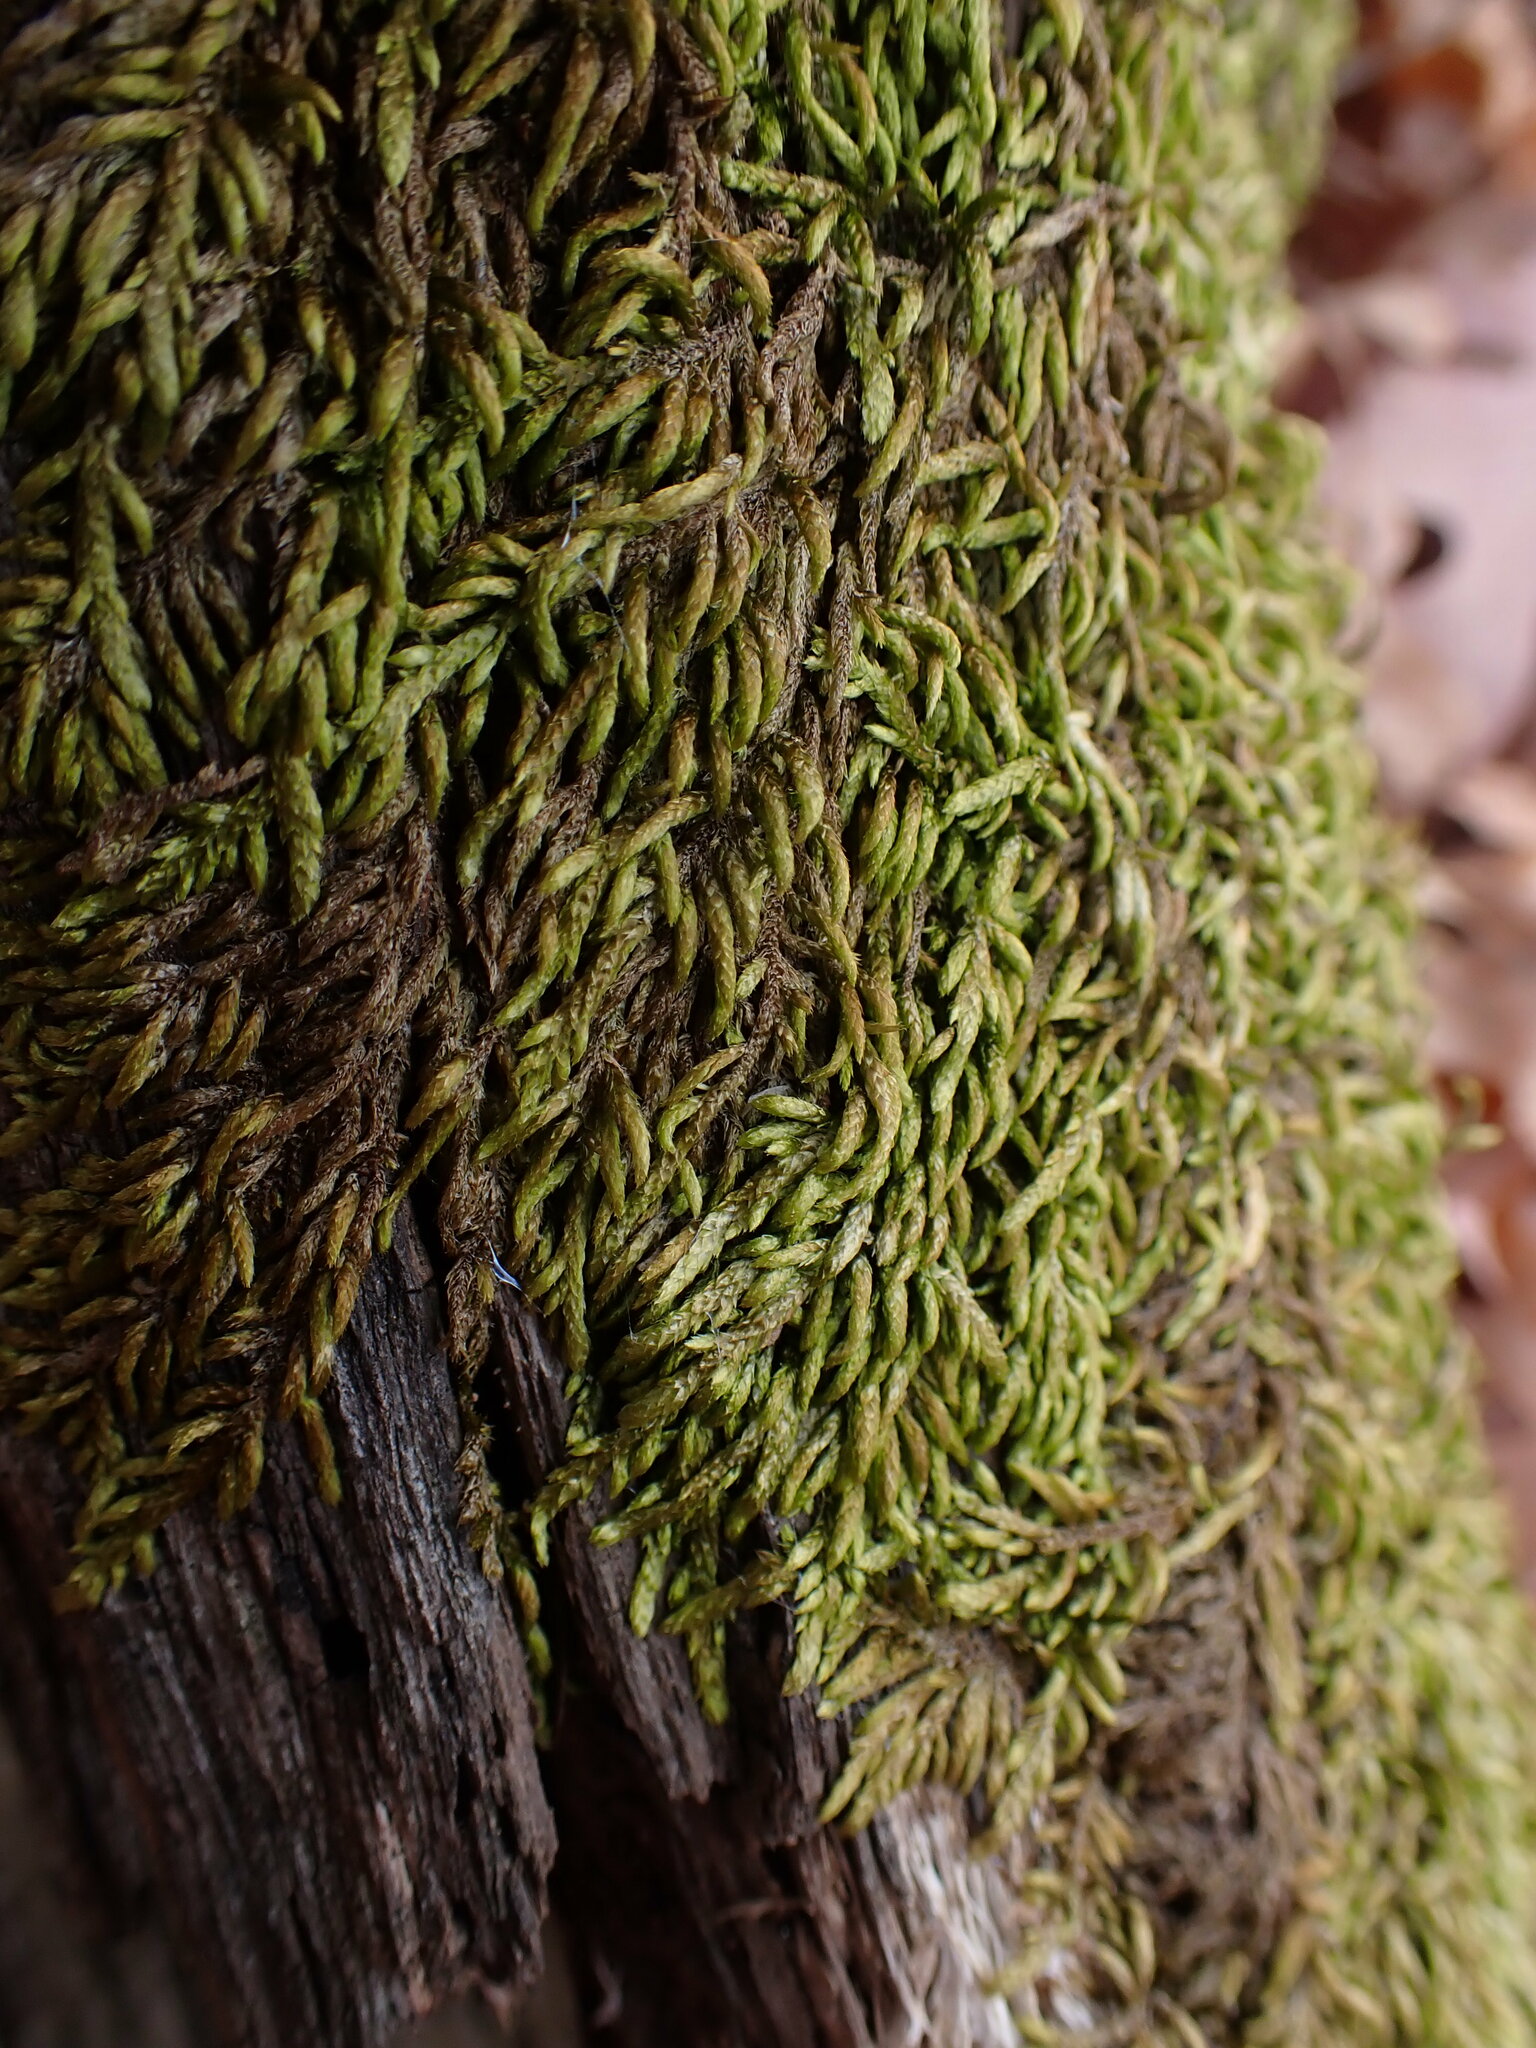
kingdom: Plantae
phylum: Bryophyta
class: Bryopsida
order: Hypnales
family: Entodontaceae
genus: Entodon
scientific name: Entodon seductrix
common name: Round-stemmed entodon moss
